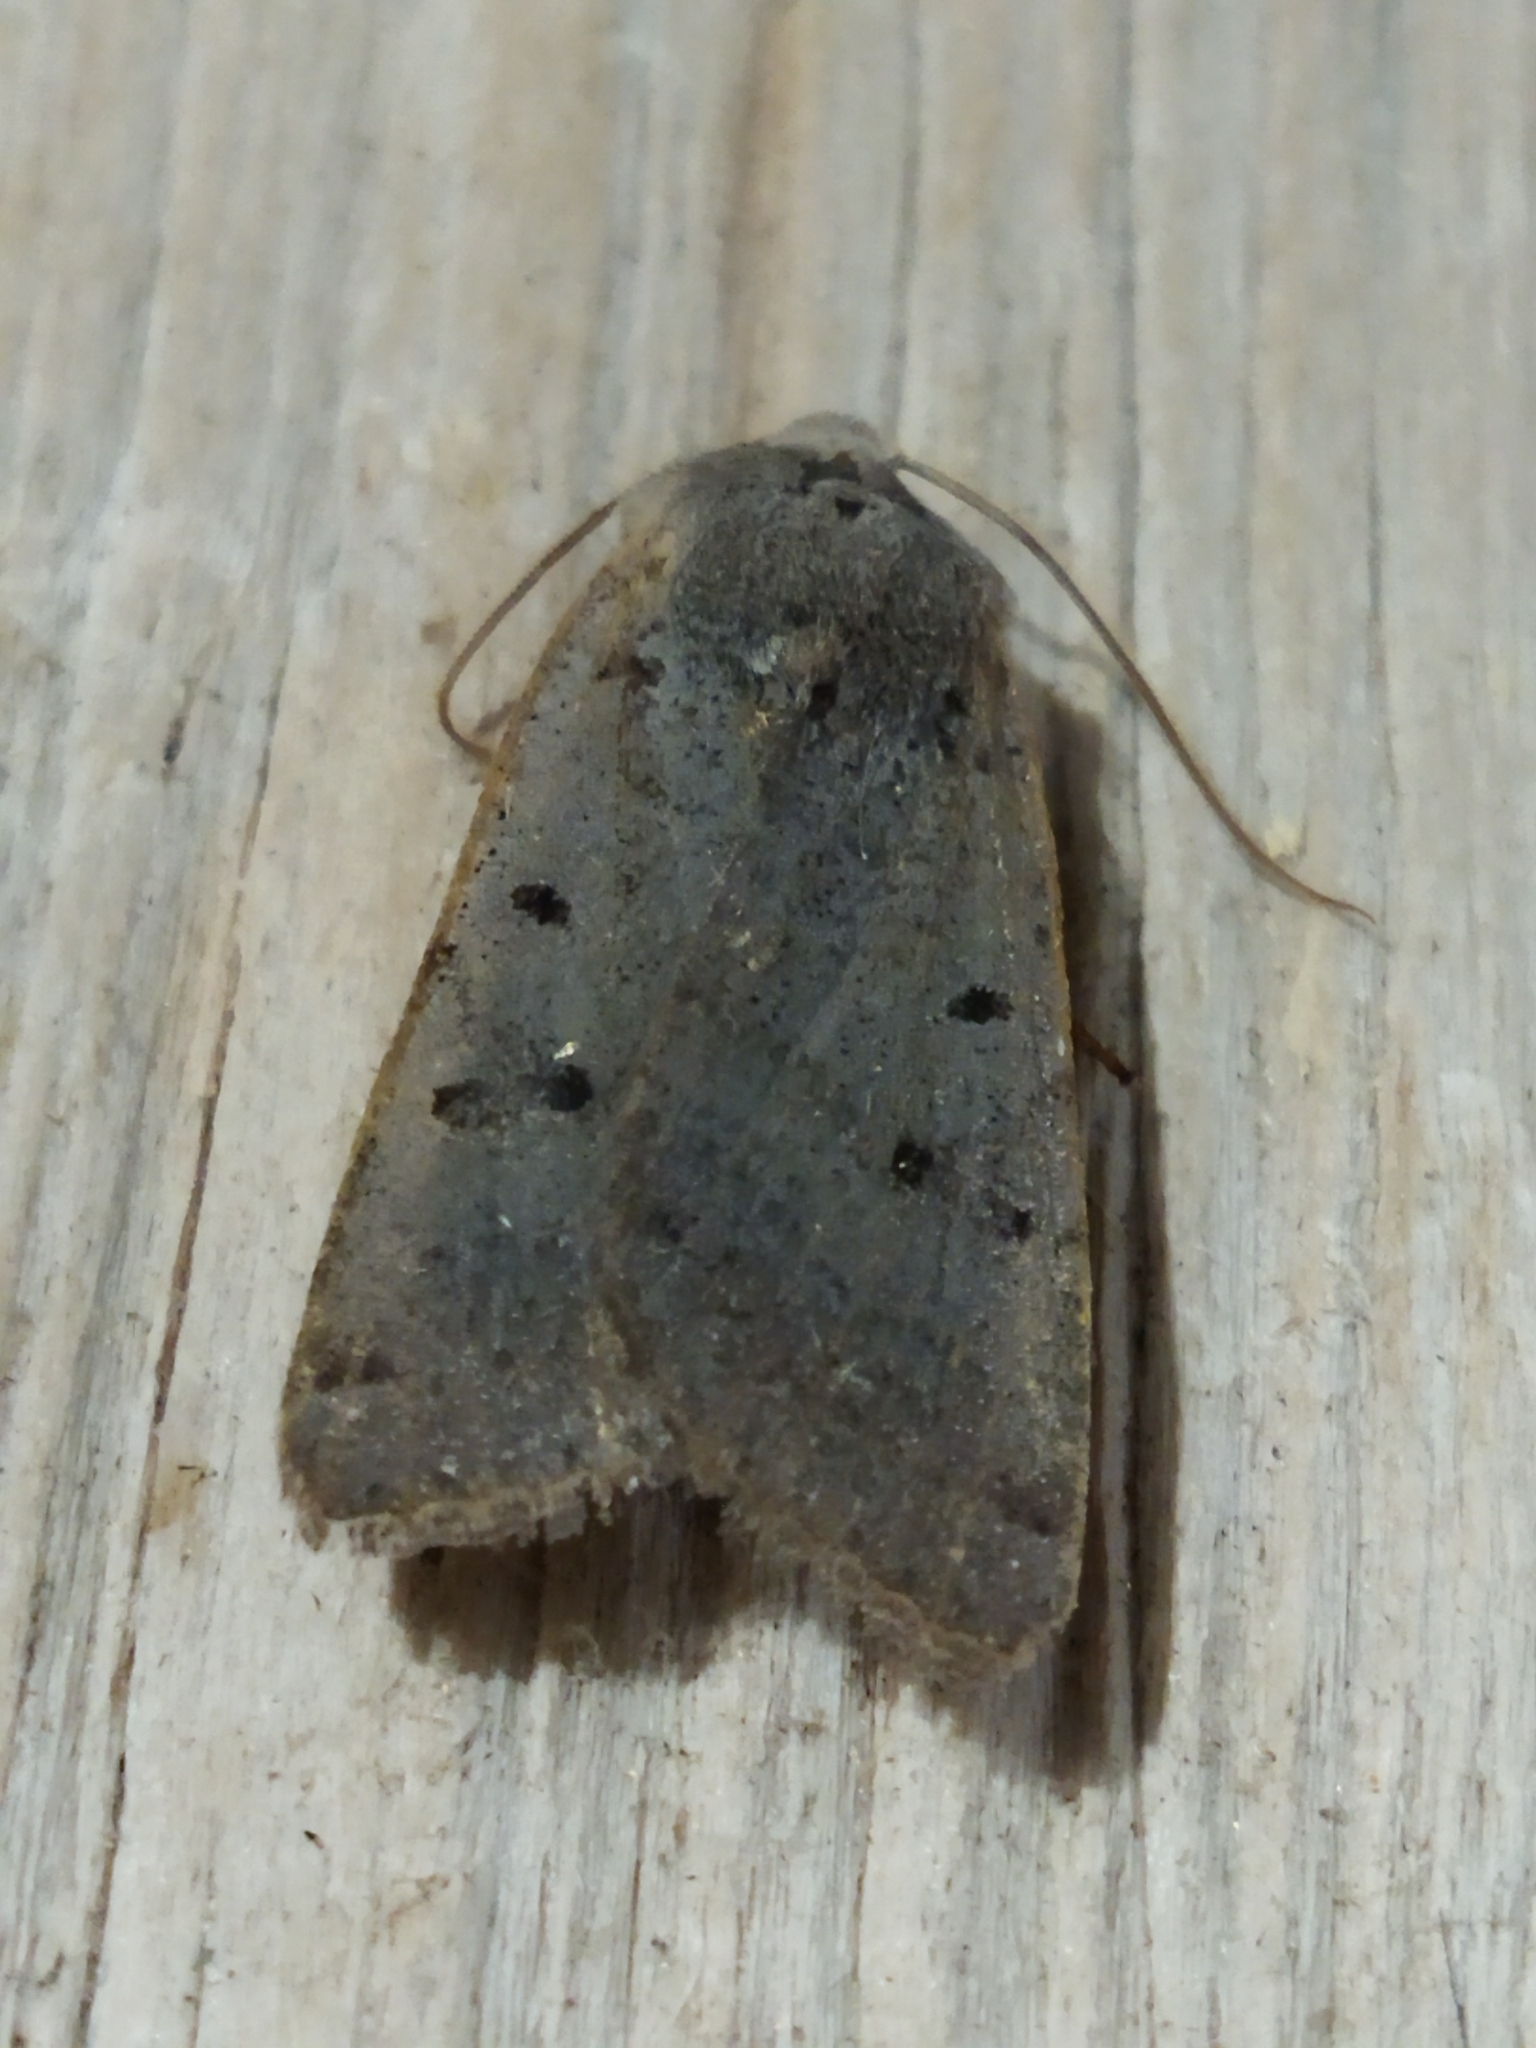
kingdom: Animalia
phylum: Arthropoda
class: Insecta
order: Lepidoptera
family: Noctuidae
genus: Agrochola
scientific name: Agrochola lychnidis
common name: Beaded chestnut
